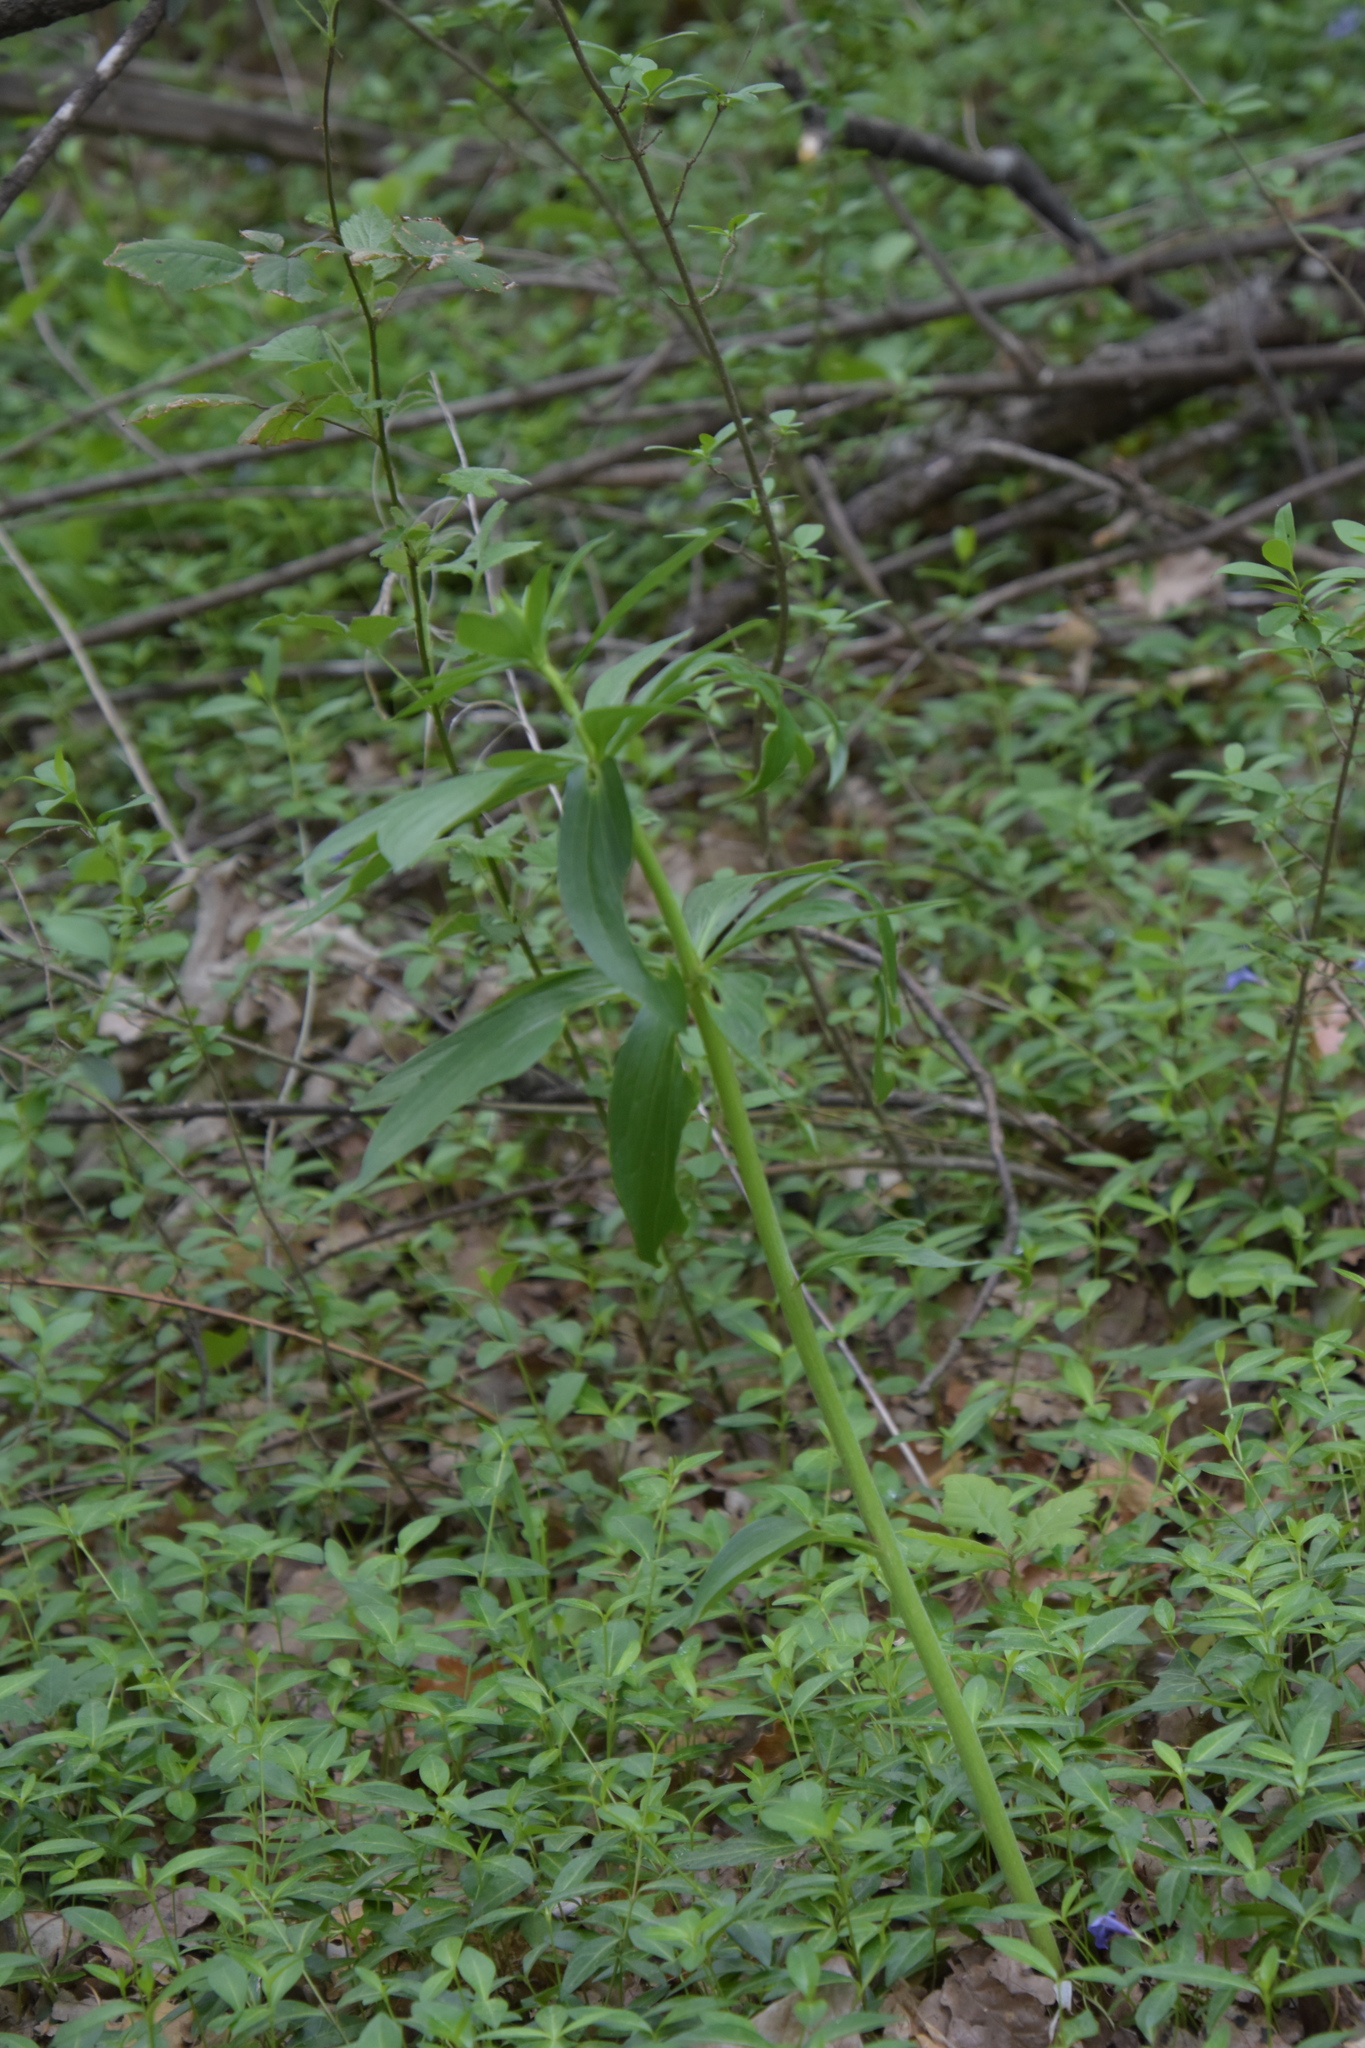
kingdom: Plantae
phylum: Tracheophyta
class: Liliopsida
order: Liliales
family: Liliaceae
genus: Lilium
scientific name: Lilium martagon
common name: Martagon lily
